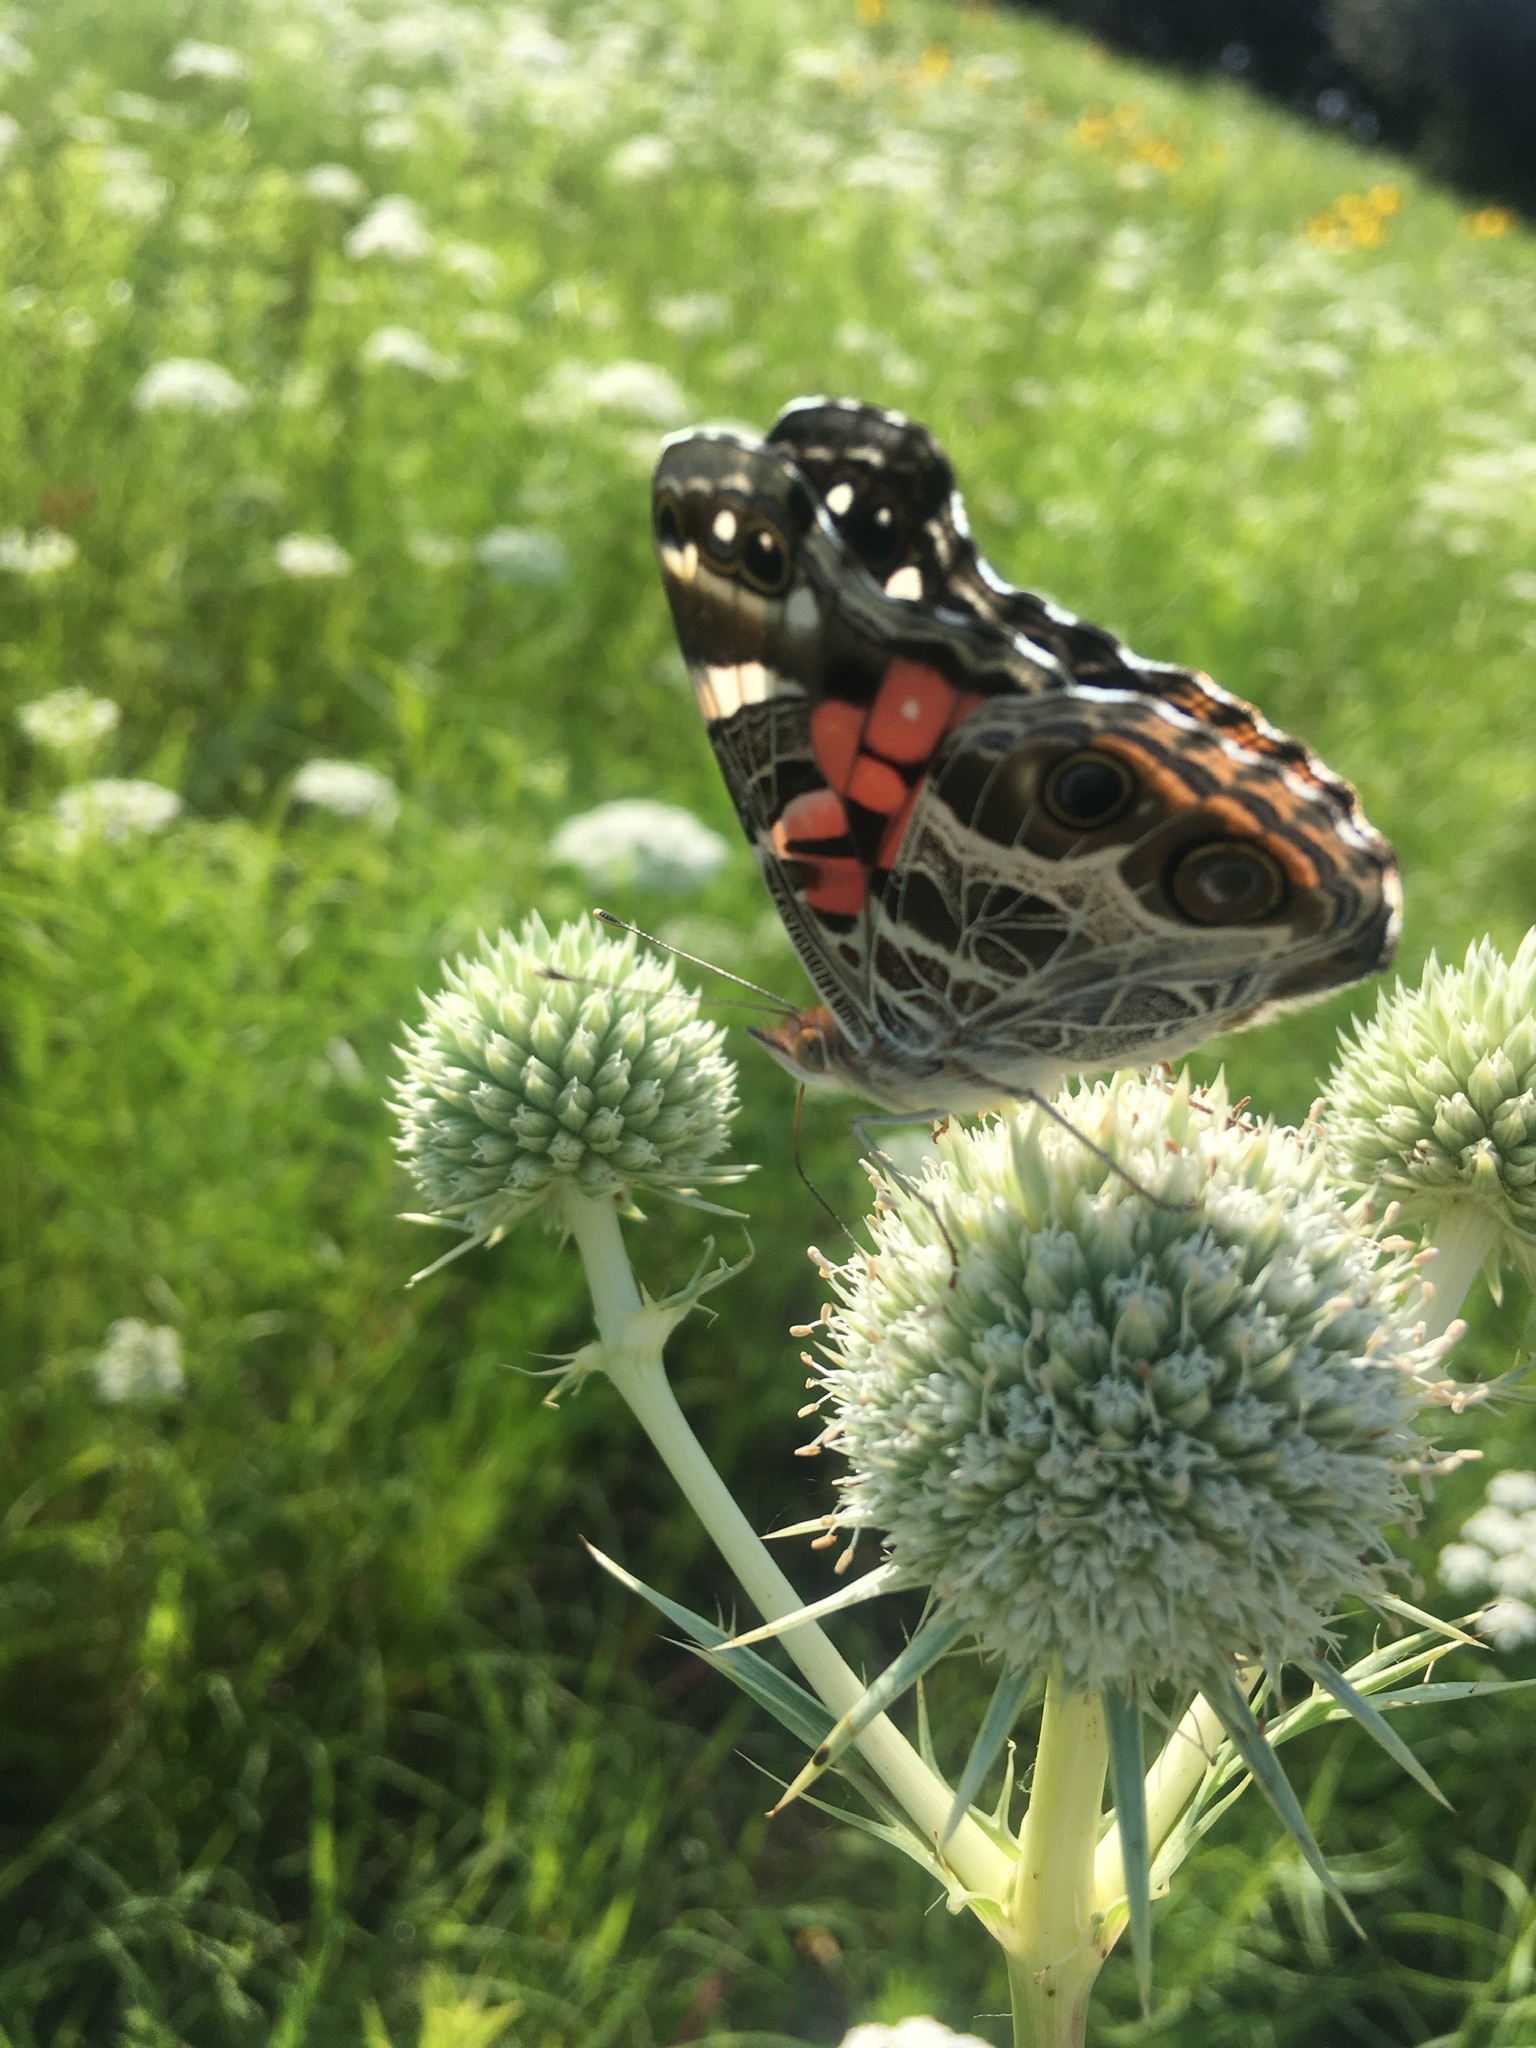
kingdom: Animalia
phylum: Arthropoda
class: Insecta
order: Lepidoptera
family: Nymphalidae
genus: Vanessa
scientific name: Vanessa virginiensis
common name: American lady
